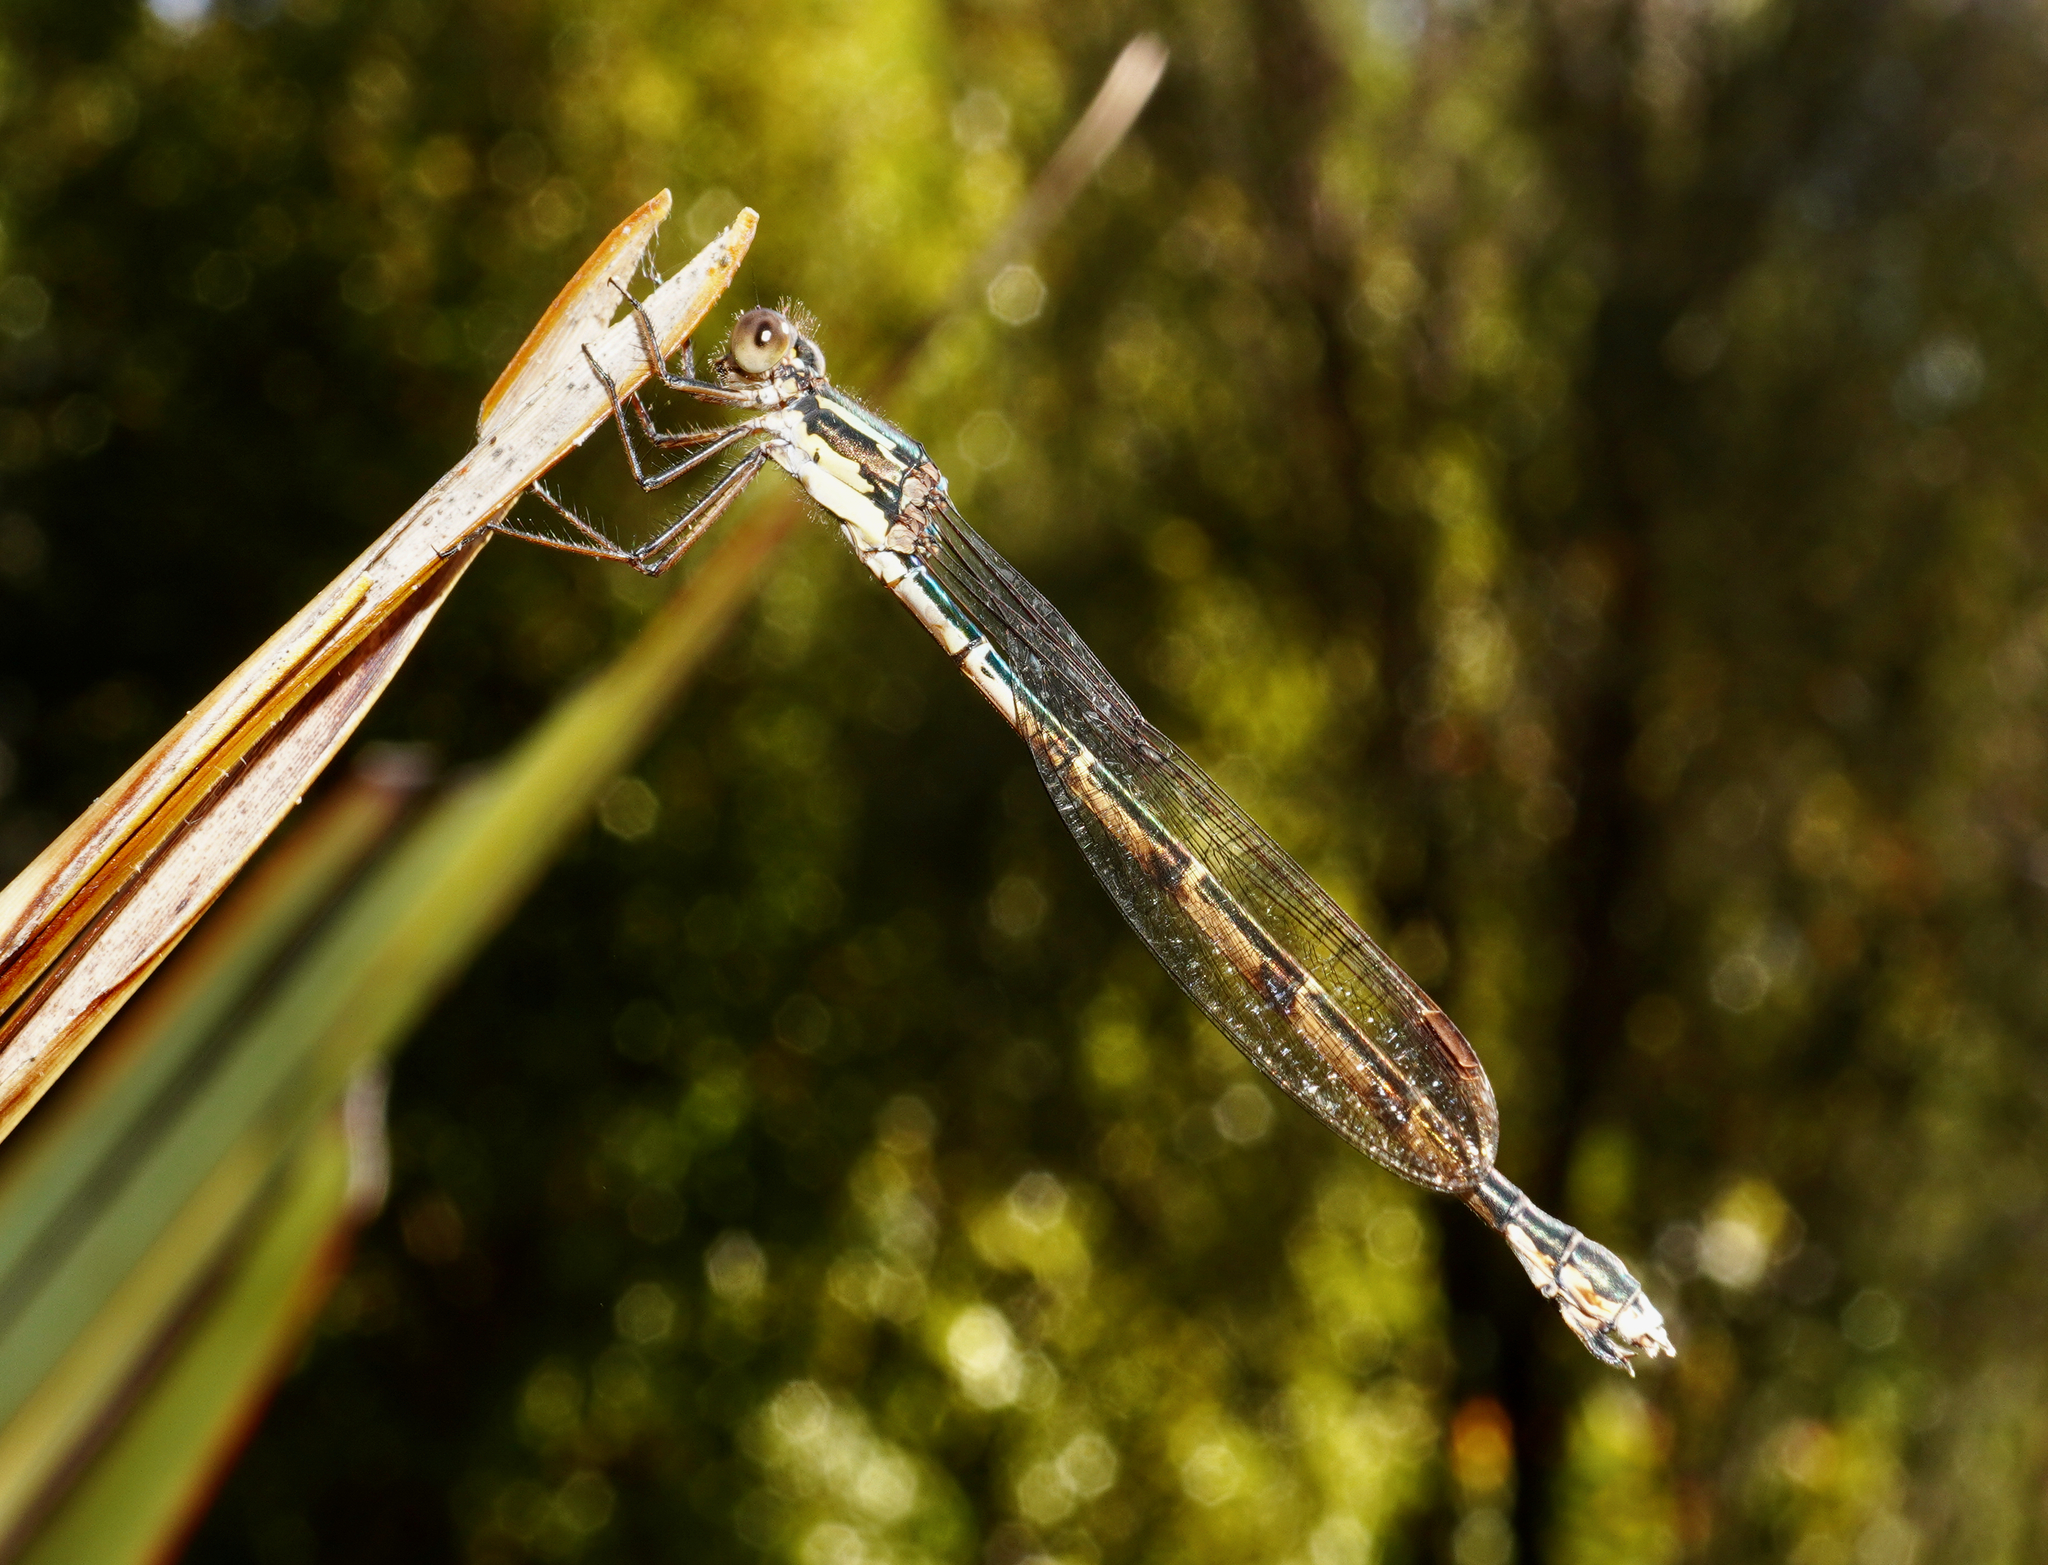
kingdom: Animalia
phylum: Arthropoda
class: Insecta
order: Odonata
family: Lestidae
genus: Austrolestes
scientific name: Austrolestes colensonis
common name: Blue damselfly
